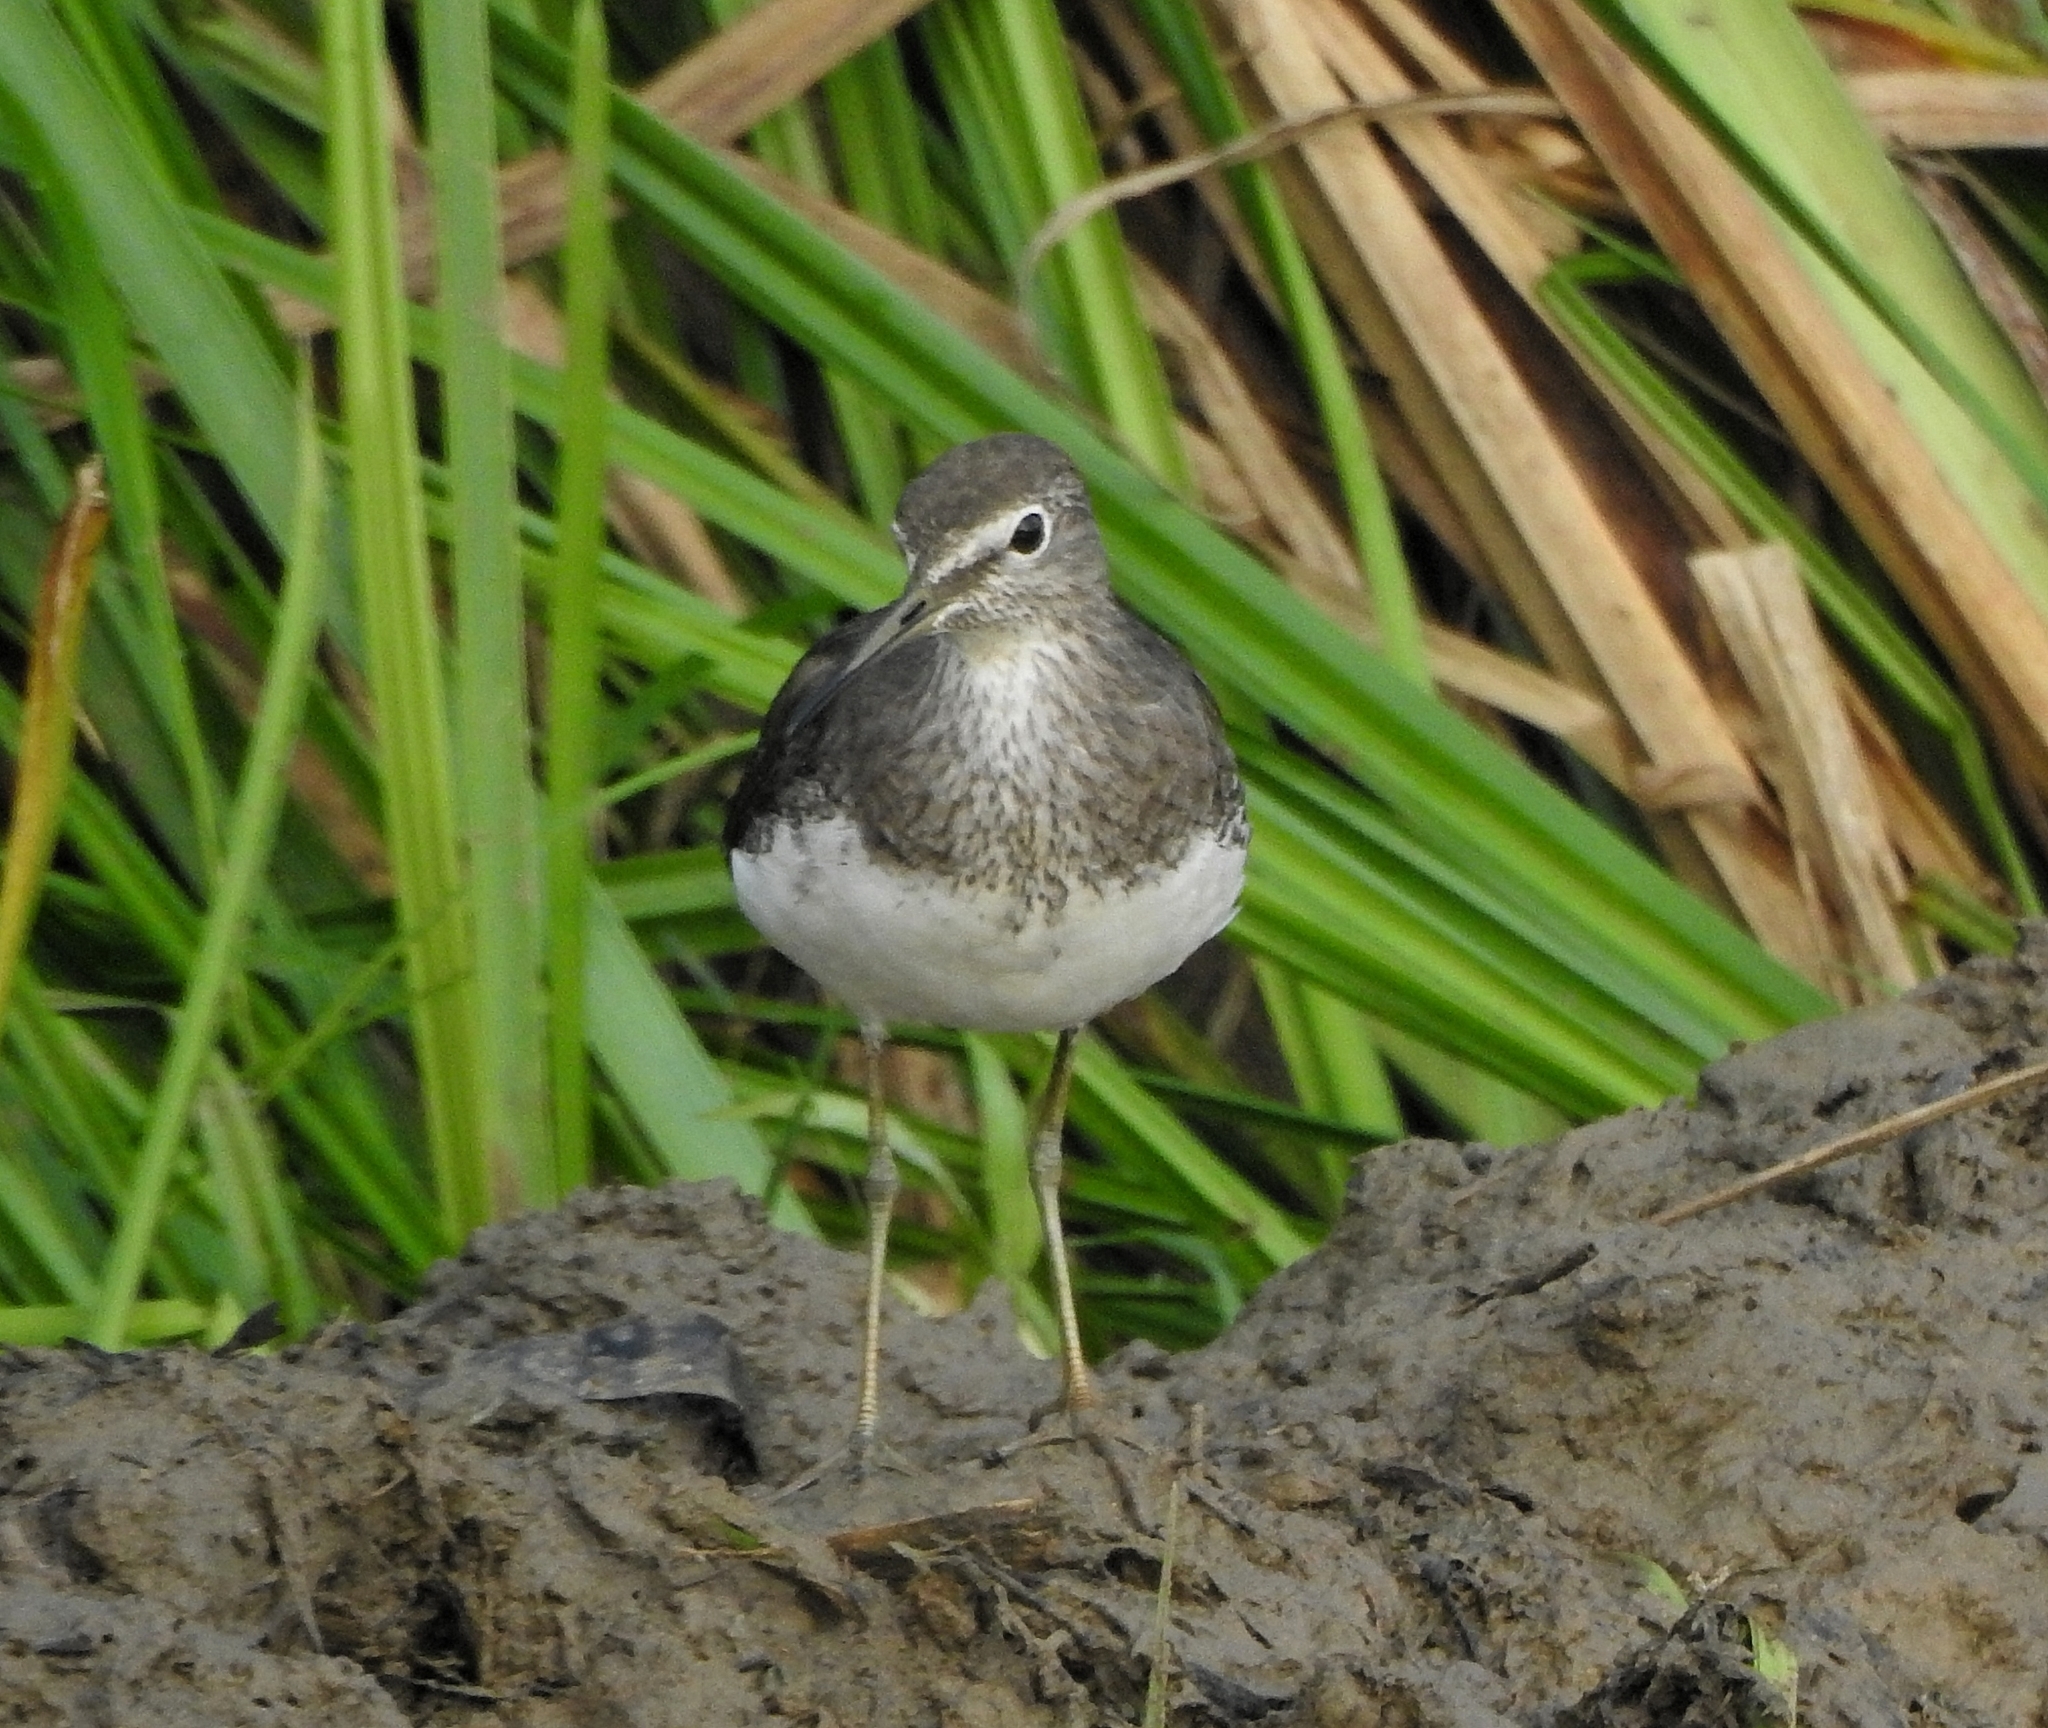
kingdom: Animalia
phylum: Chordata
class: Aves
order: Charadriiformes
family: Scolopacidae
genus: Tringa
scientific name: Tringa ochropus
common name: Green sandpiper
